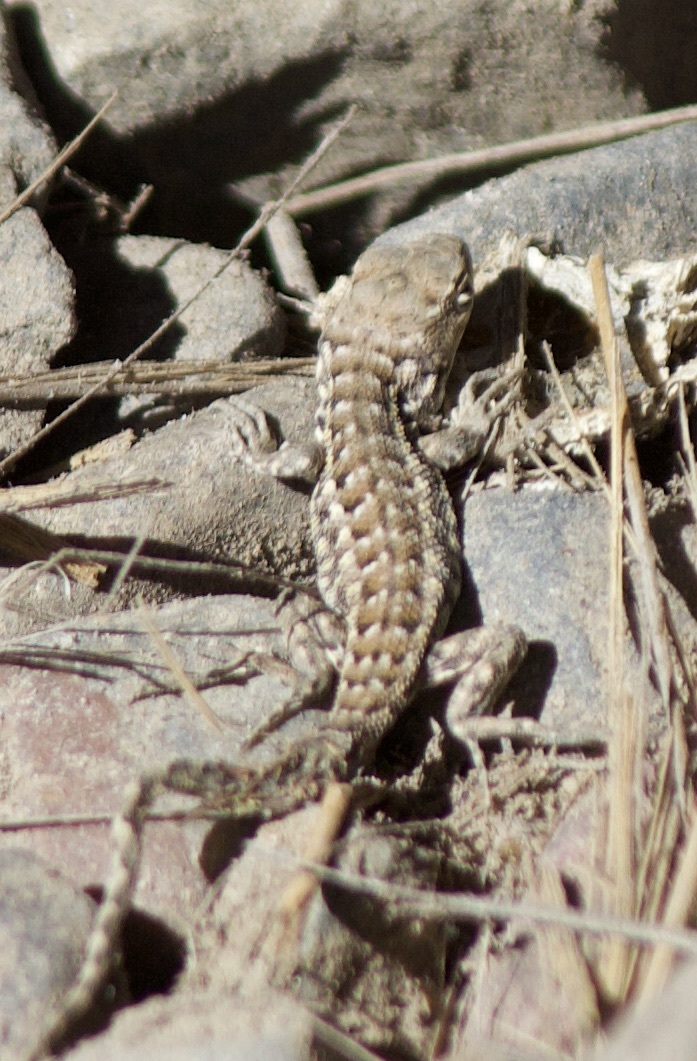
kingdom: Animalia
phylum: Chordata
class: Squamata
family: Liolaemidae
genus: Liolaemus
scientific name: Liolaemus zapallarensis
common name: Zapallaren tree iguana
